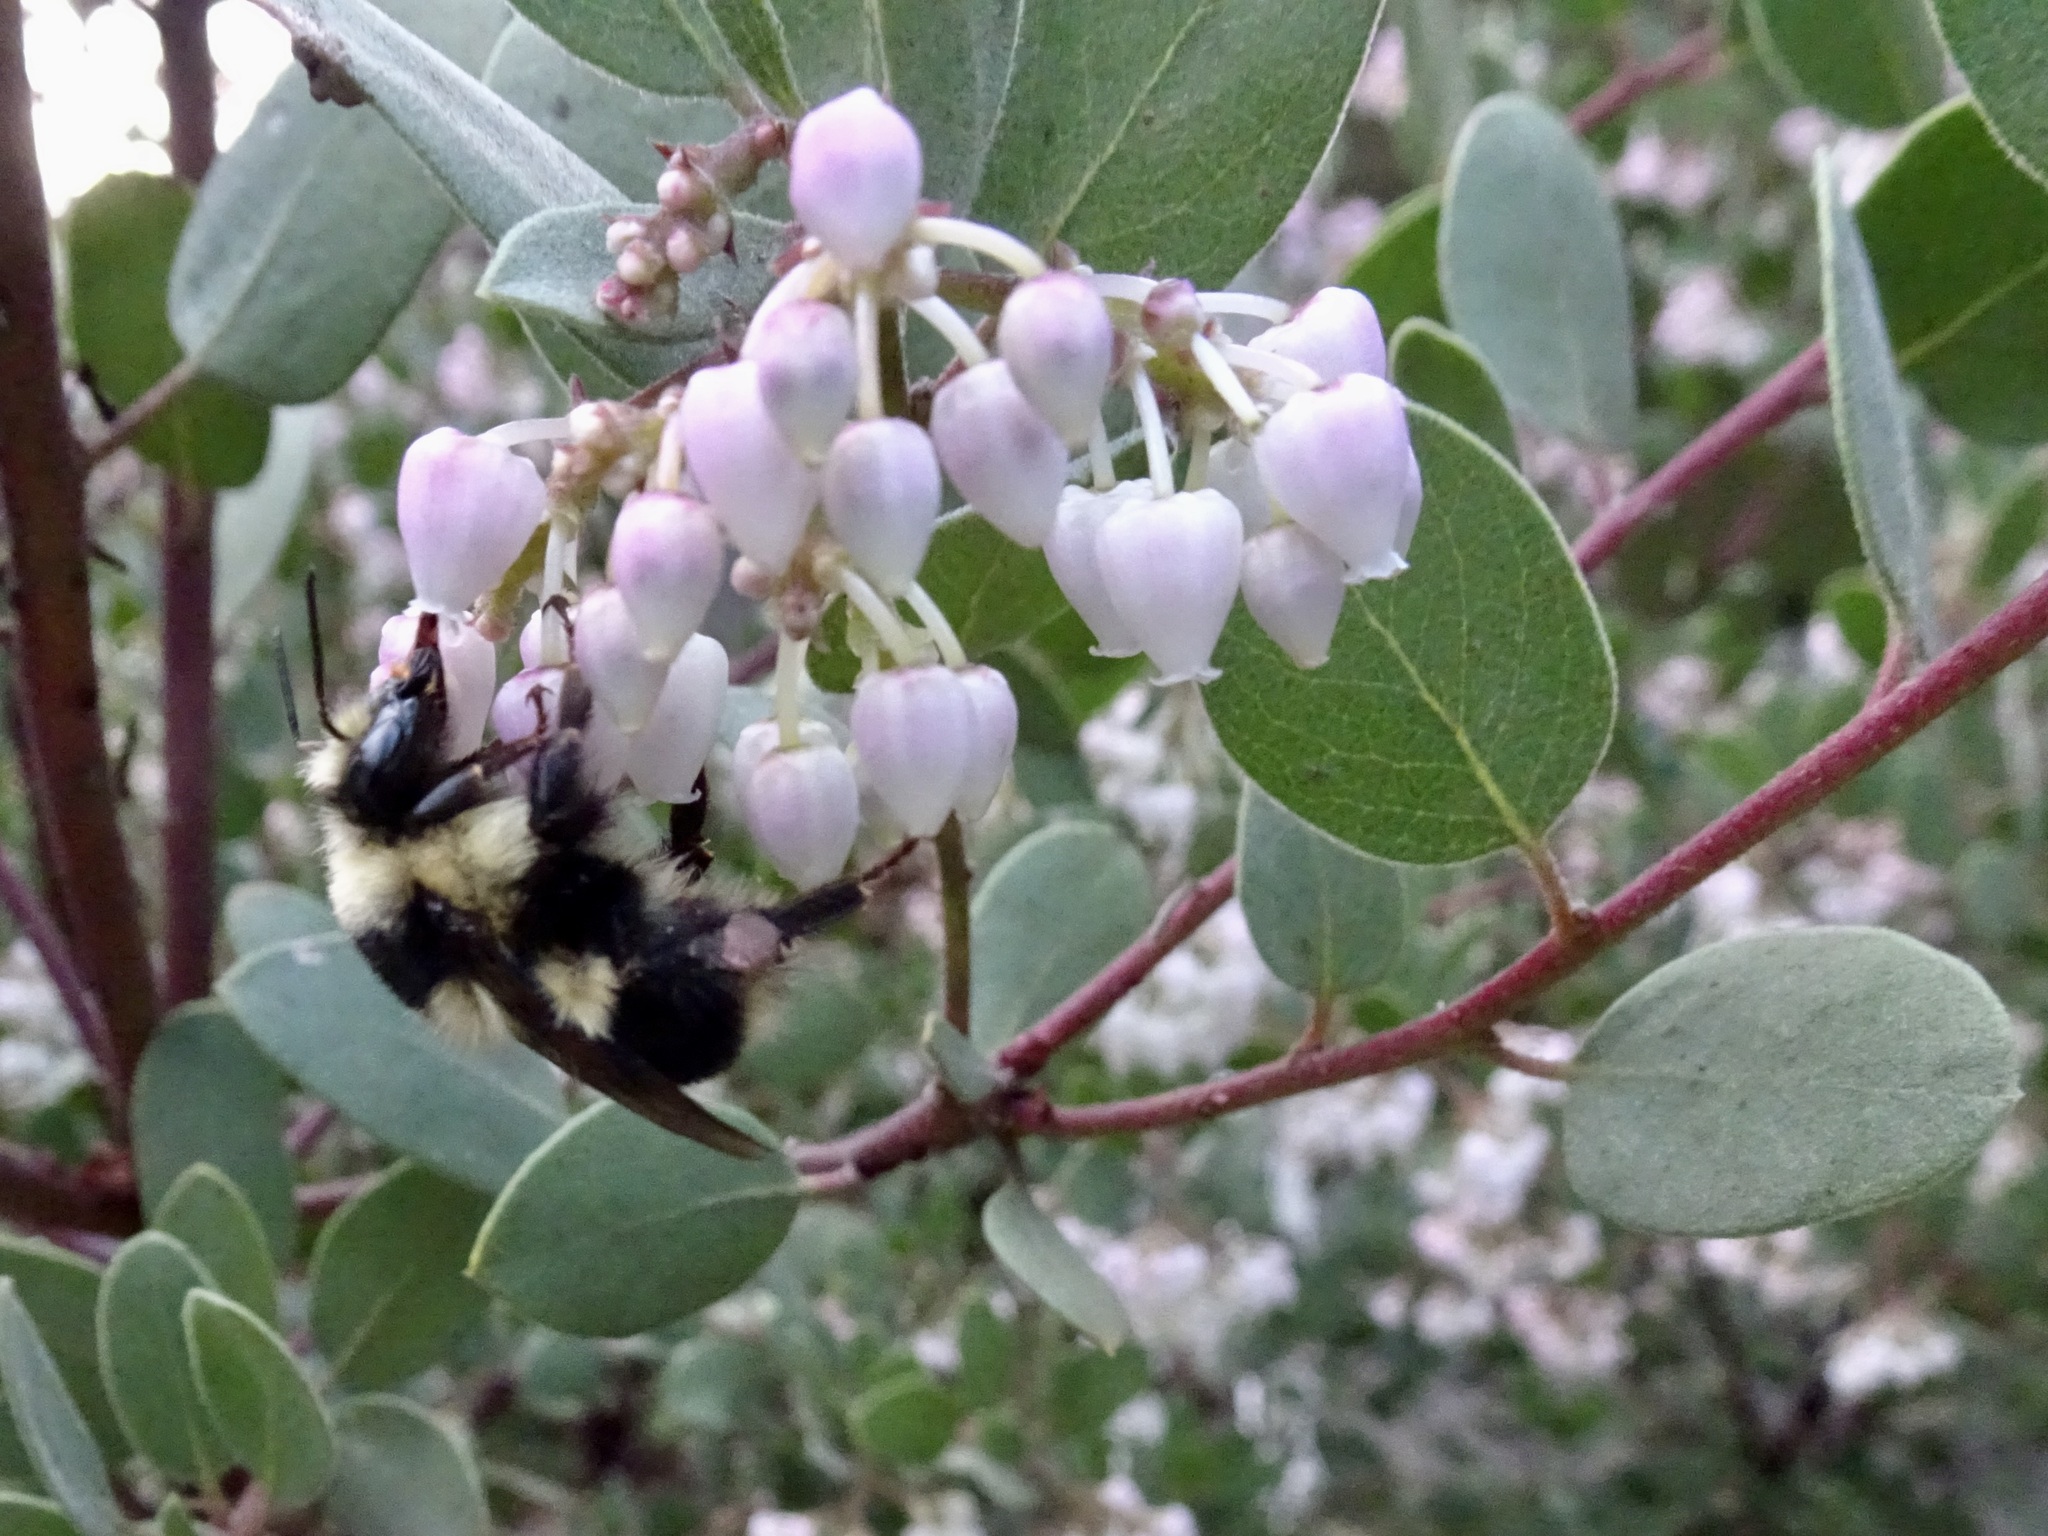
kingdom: Animalia
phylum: Arthropoda
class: Insecta
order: Hymenoptera
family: Apidae
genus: Bombus
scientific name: Bombus melanopygus
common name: Black tail bumble bee
